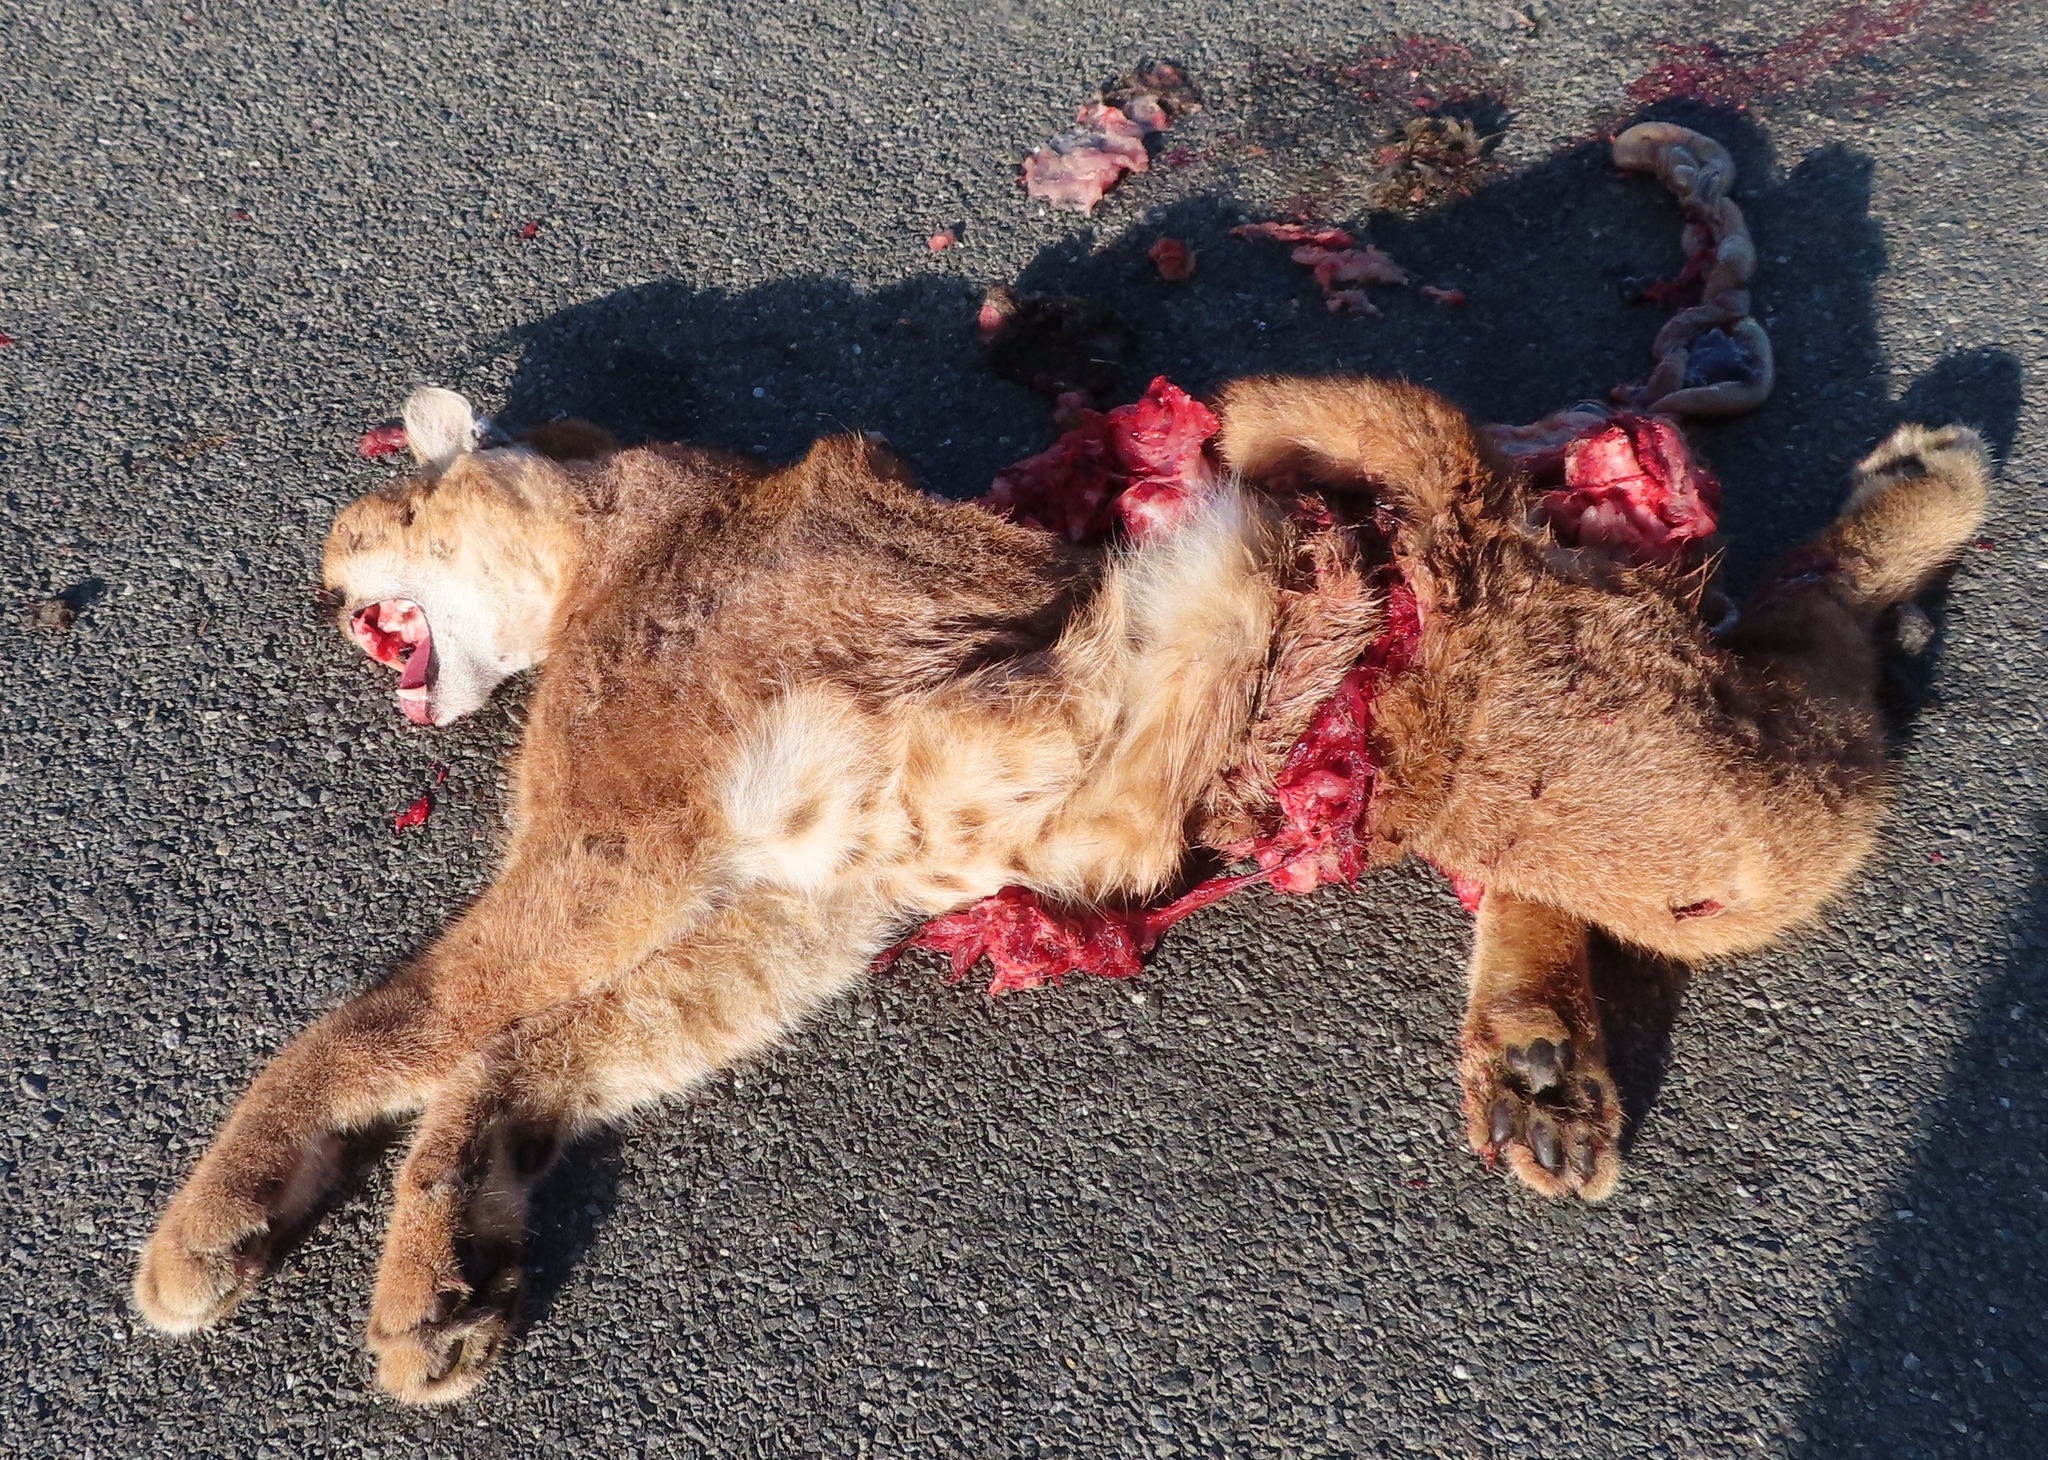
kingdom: Animalia
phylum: Chordata
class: Mammalia
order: Carnivora
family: Felidae
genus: Caracal
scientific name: Caracal caracal
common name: Caracal
